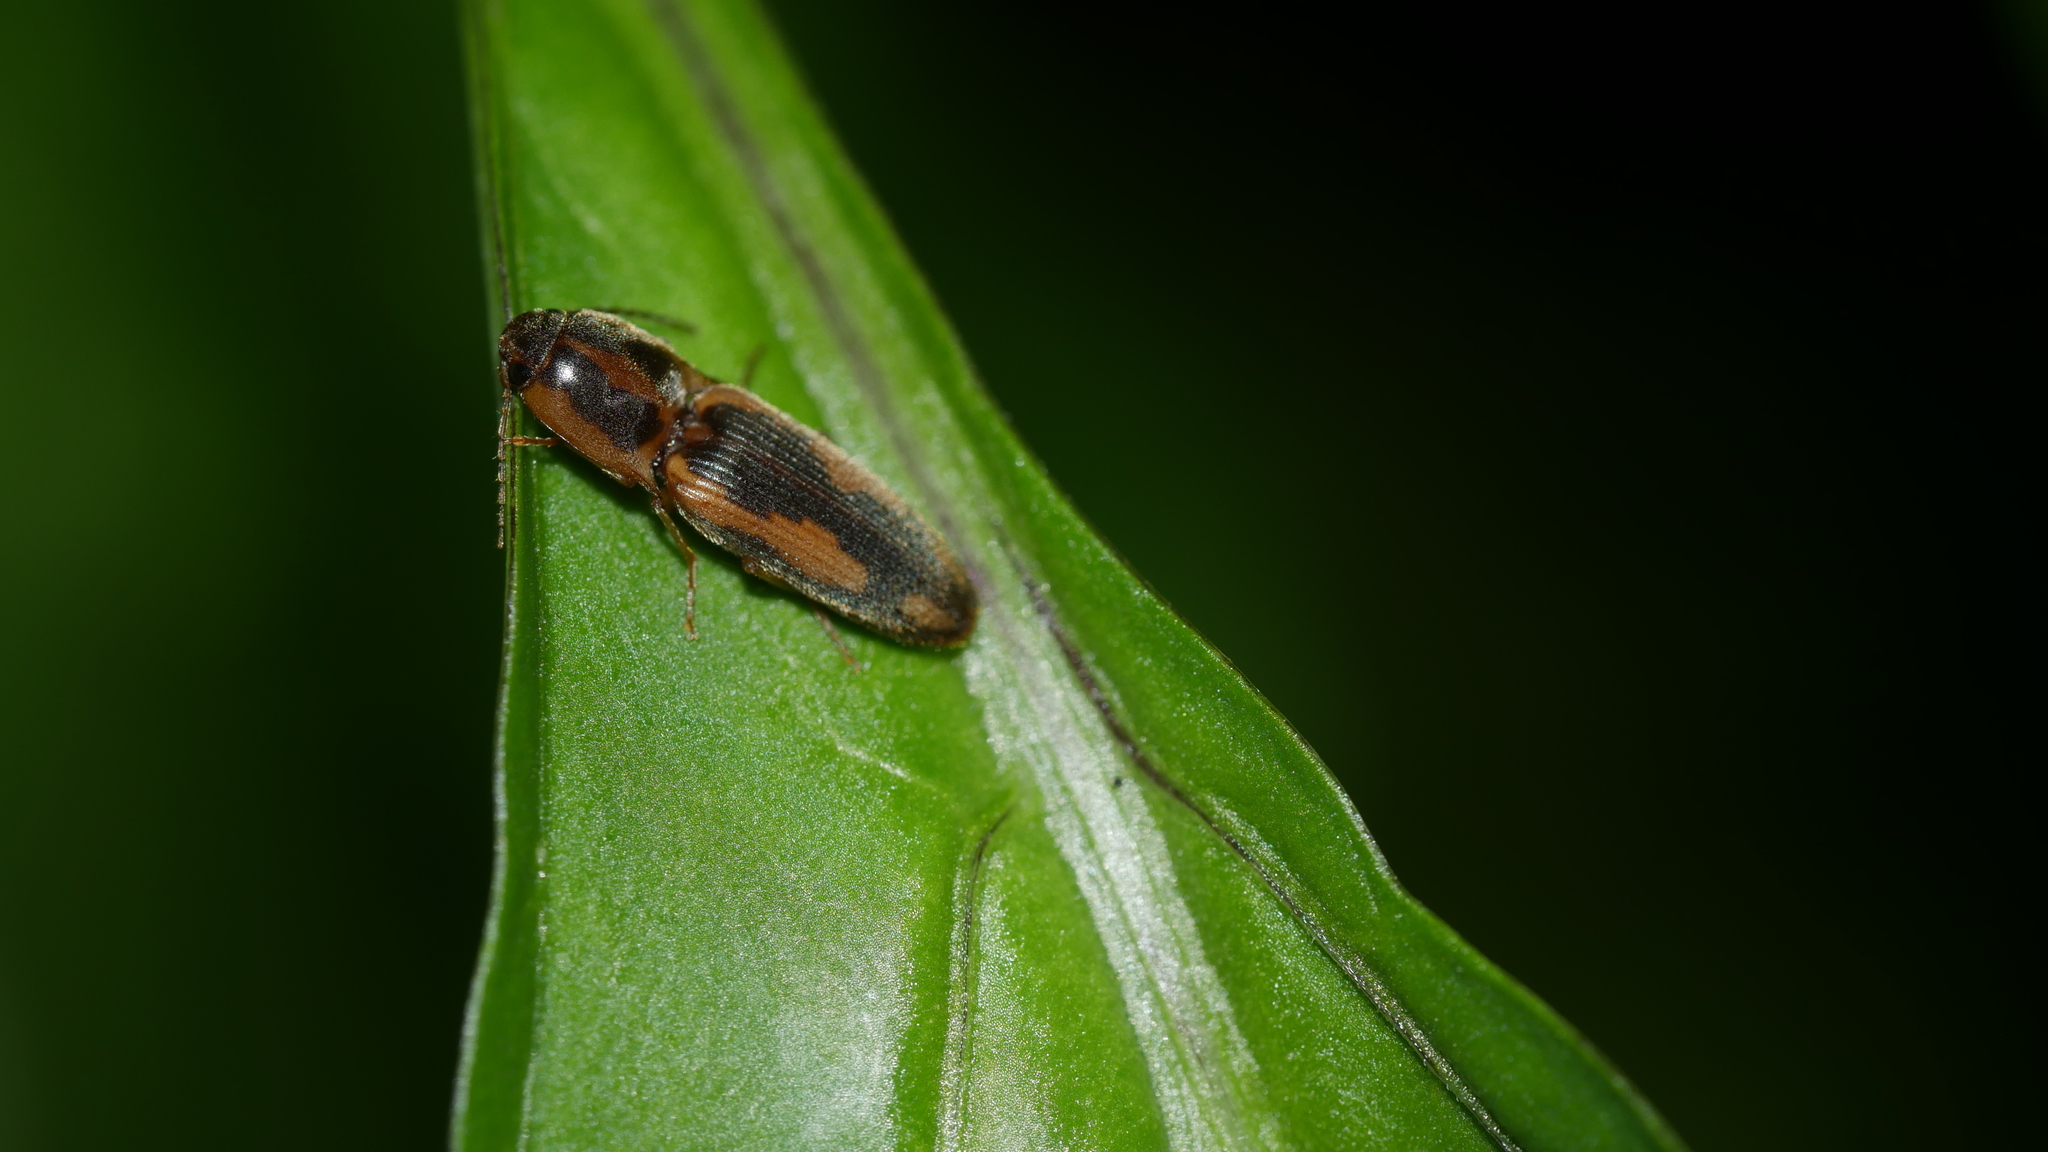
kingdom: Animalia
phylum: Arthropoda
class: Insecta
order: Coleoptera
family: Elateridae
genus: Monocrepidius
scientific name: Monocrepidius
